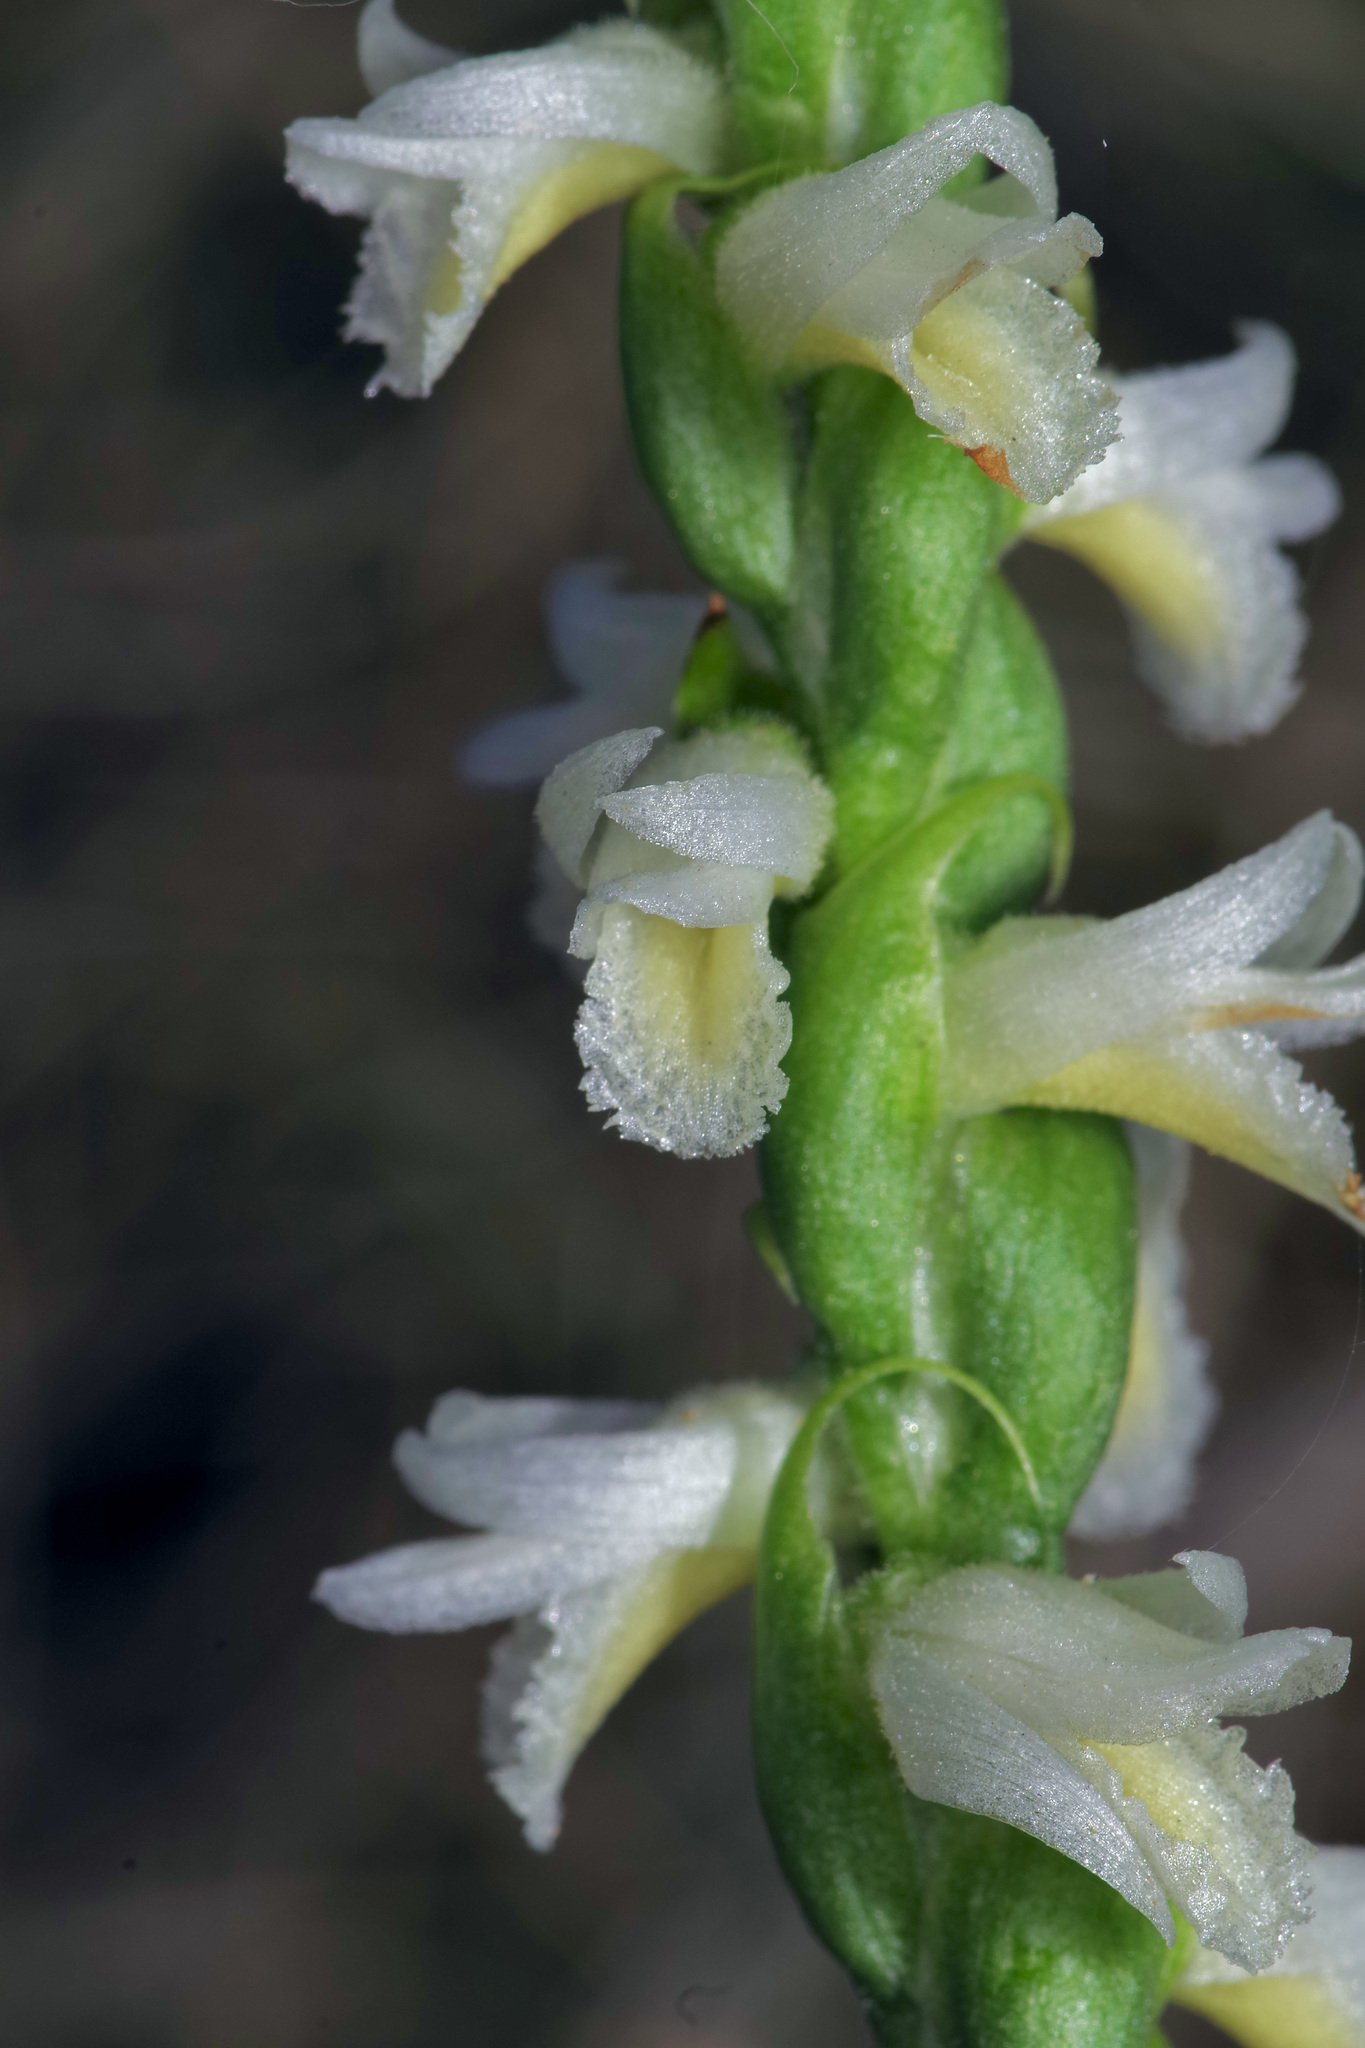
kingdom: Plantae
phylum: Tracheophyta
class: Liliopsida
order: Asparagales
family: Orchidaceae
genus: Spiranthes
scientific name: Spiranthes magnicamporum
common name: Great plains ladies'-tresses
